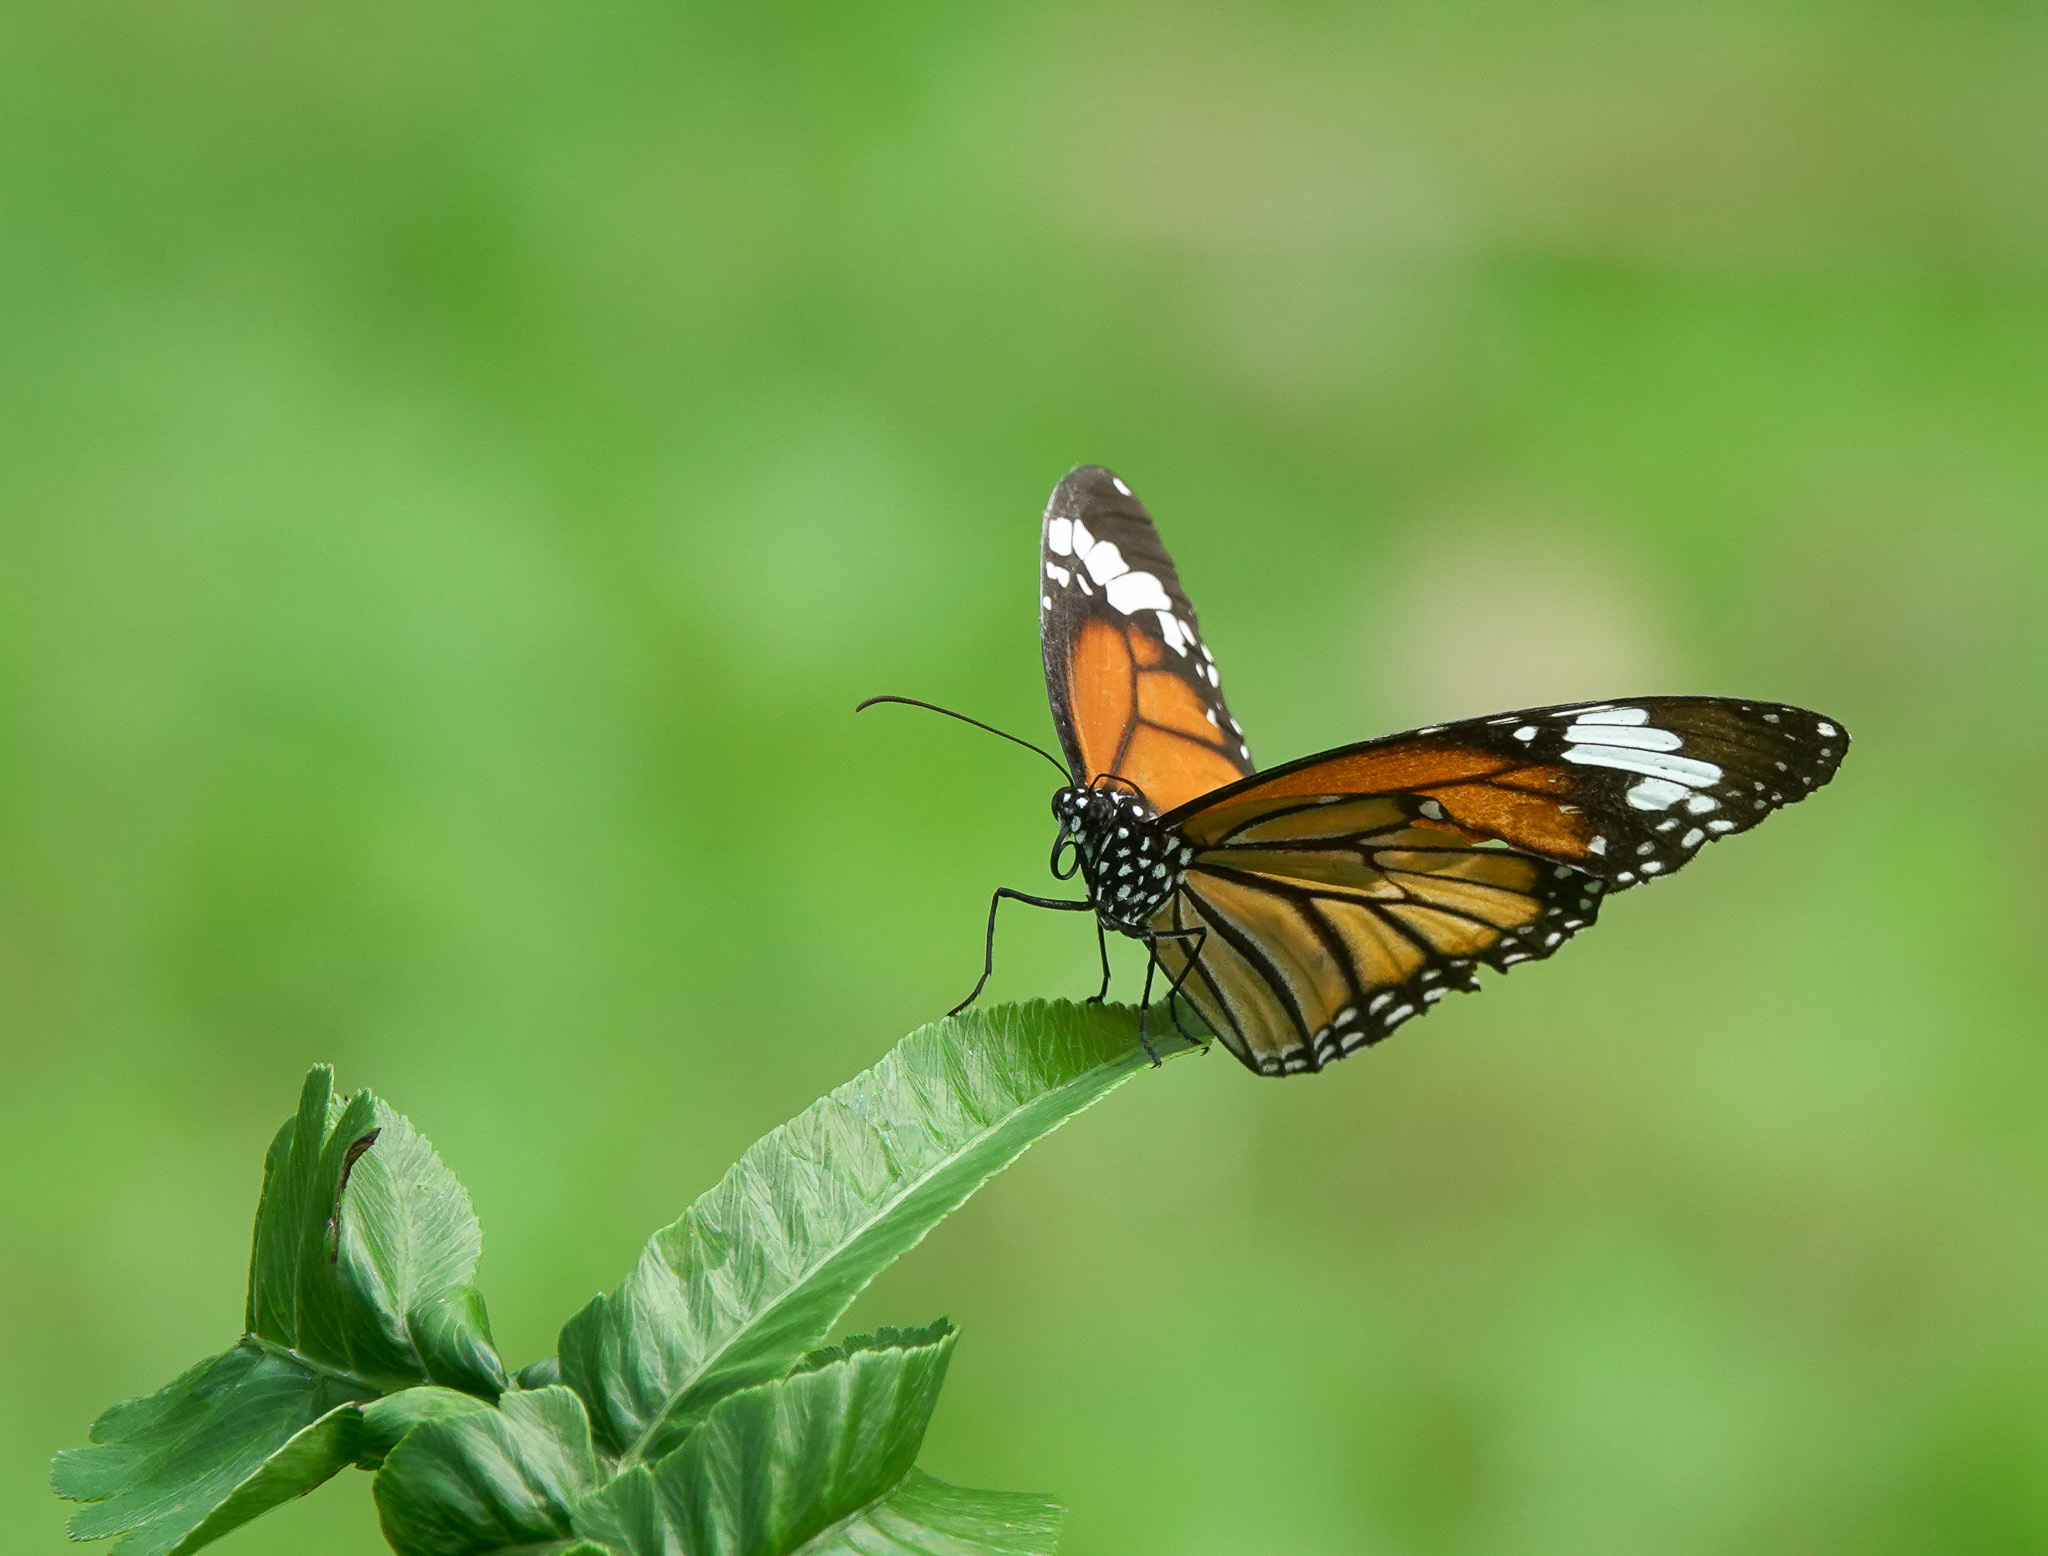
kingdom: Animalia
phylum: Arthropoda
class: Insecta
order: Lepidoptera
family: Nymphalidae
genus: Danaus
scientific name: Danaus genutia
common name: Common tiger butterfly
